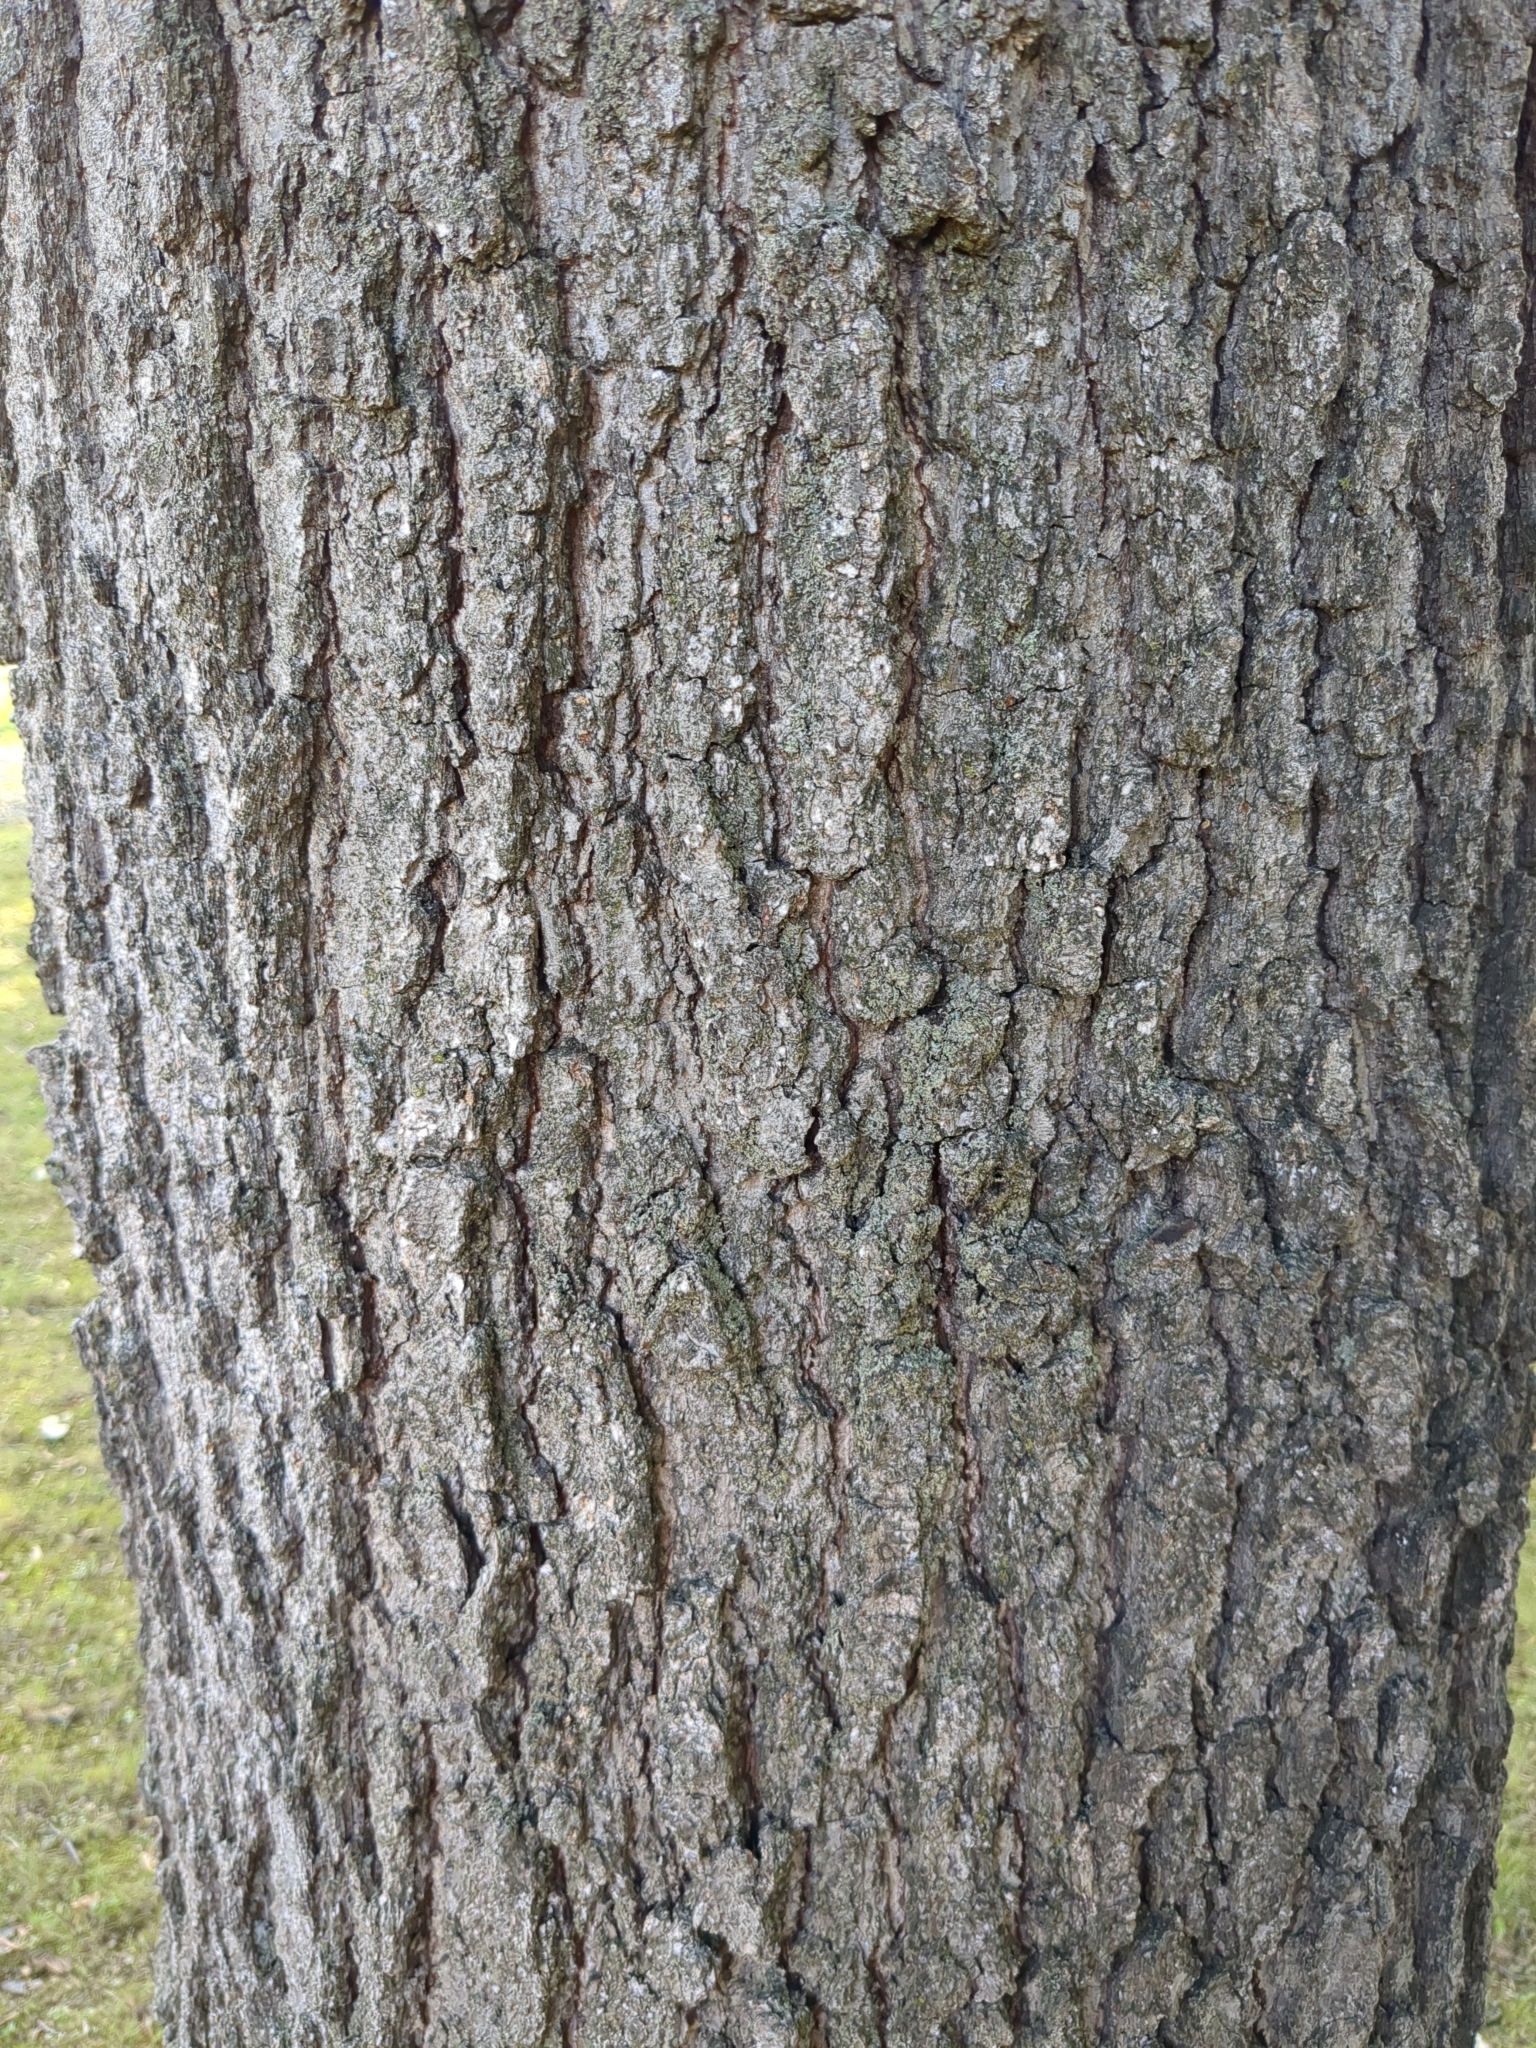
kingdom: Plantae
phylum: Tracheophyta
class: Magnoliopsida
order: Fagales
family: Fagaceae
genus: Quercus
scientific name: Quercus rubra
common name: Red oak
